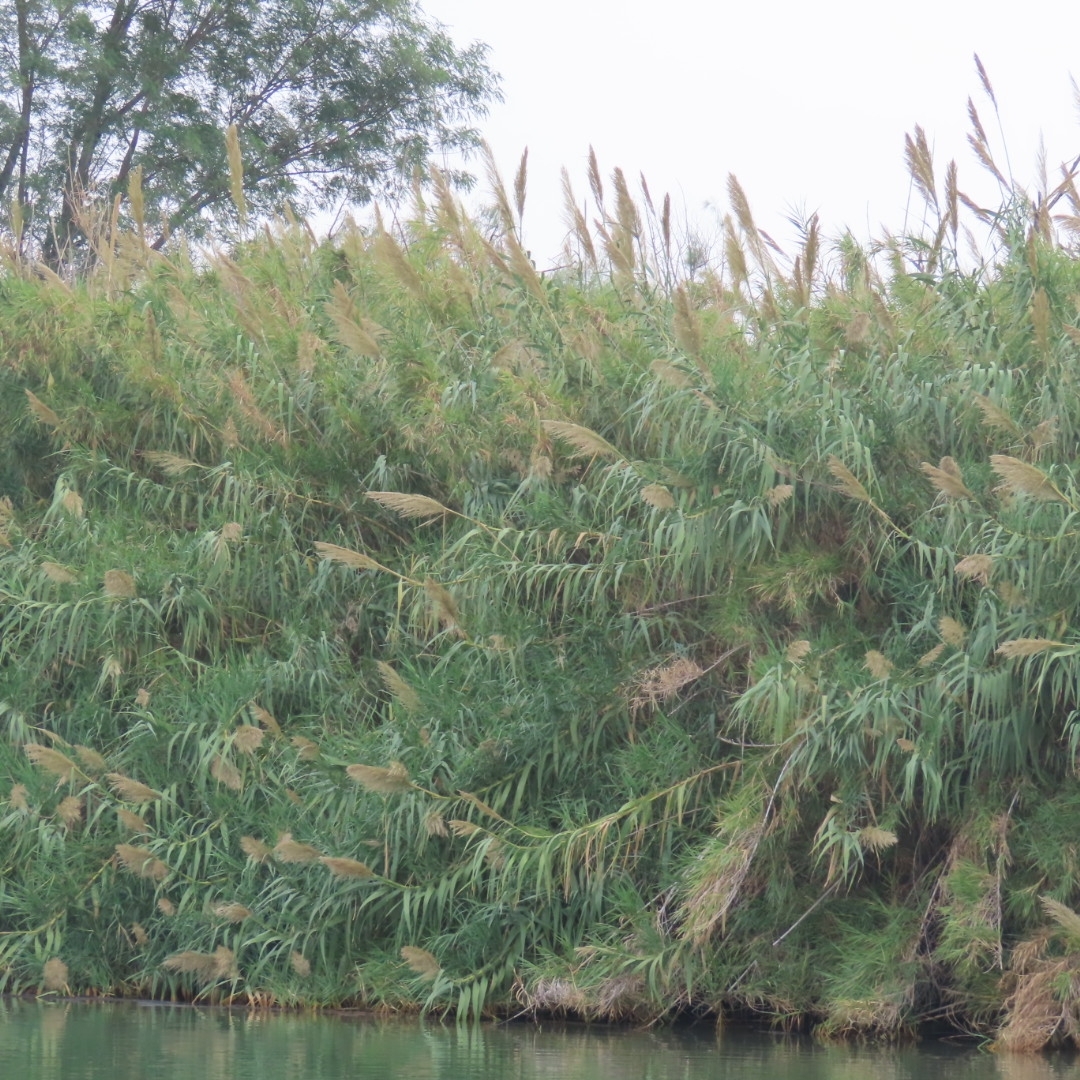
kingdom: Plantae
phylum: Tracheophyta
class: Liliopsida
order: Poales
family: Poaceae
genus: Arundo
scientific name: Arundo donax
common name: Giant reed
